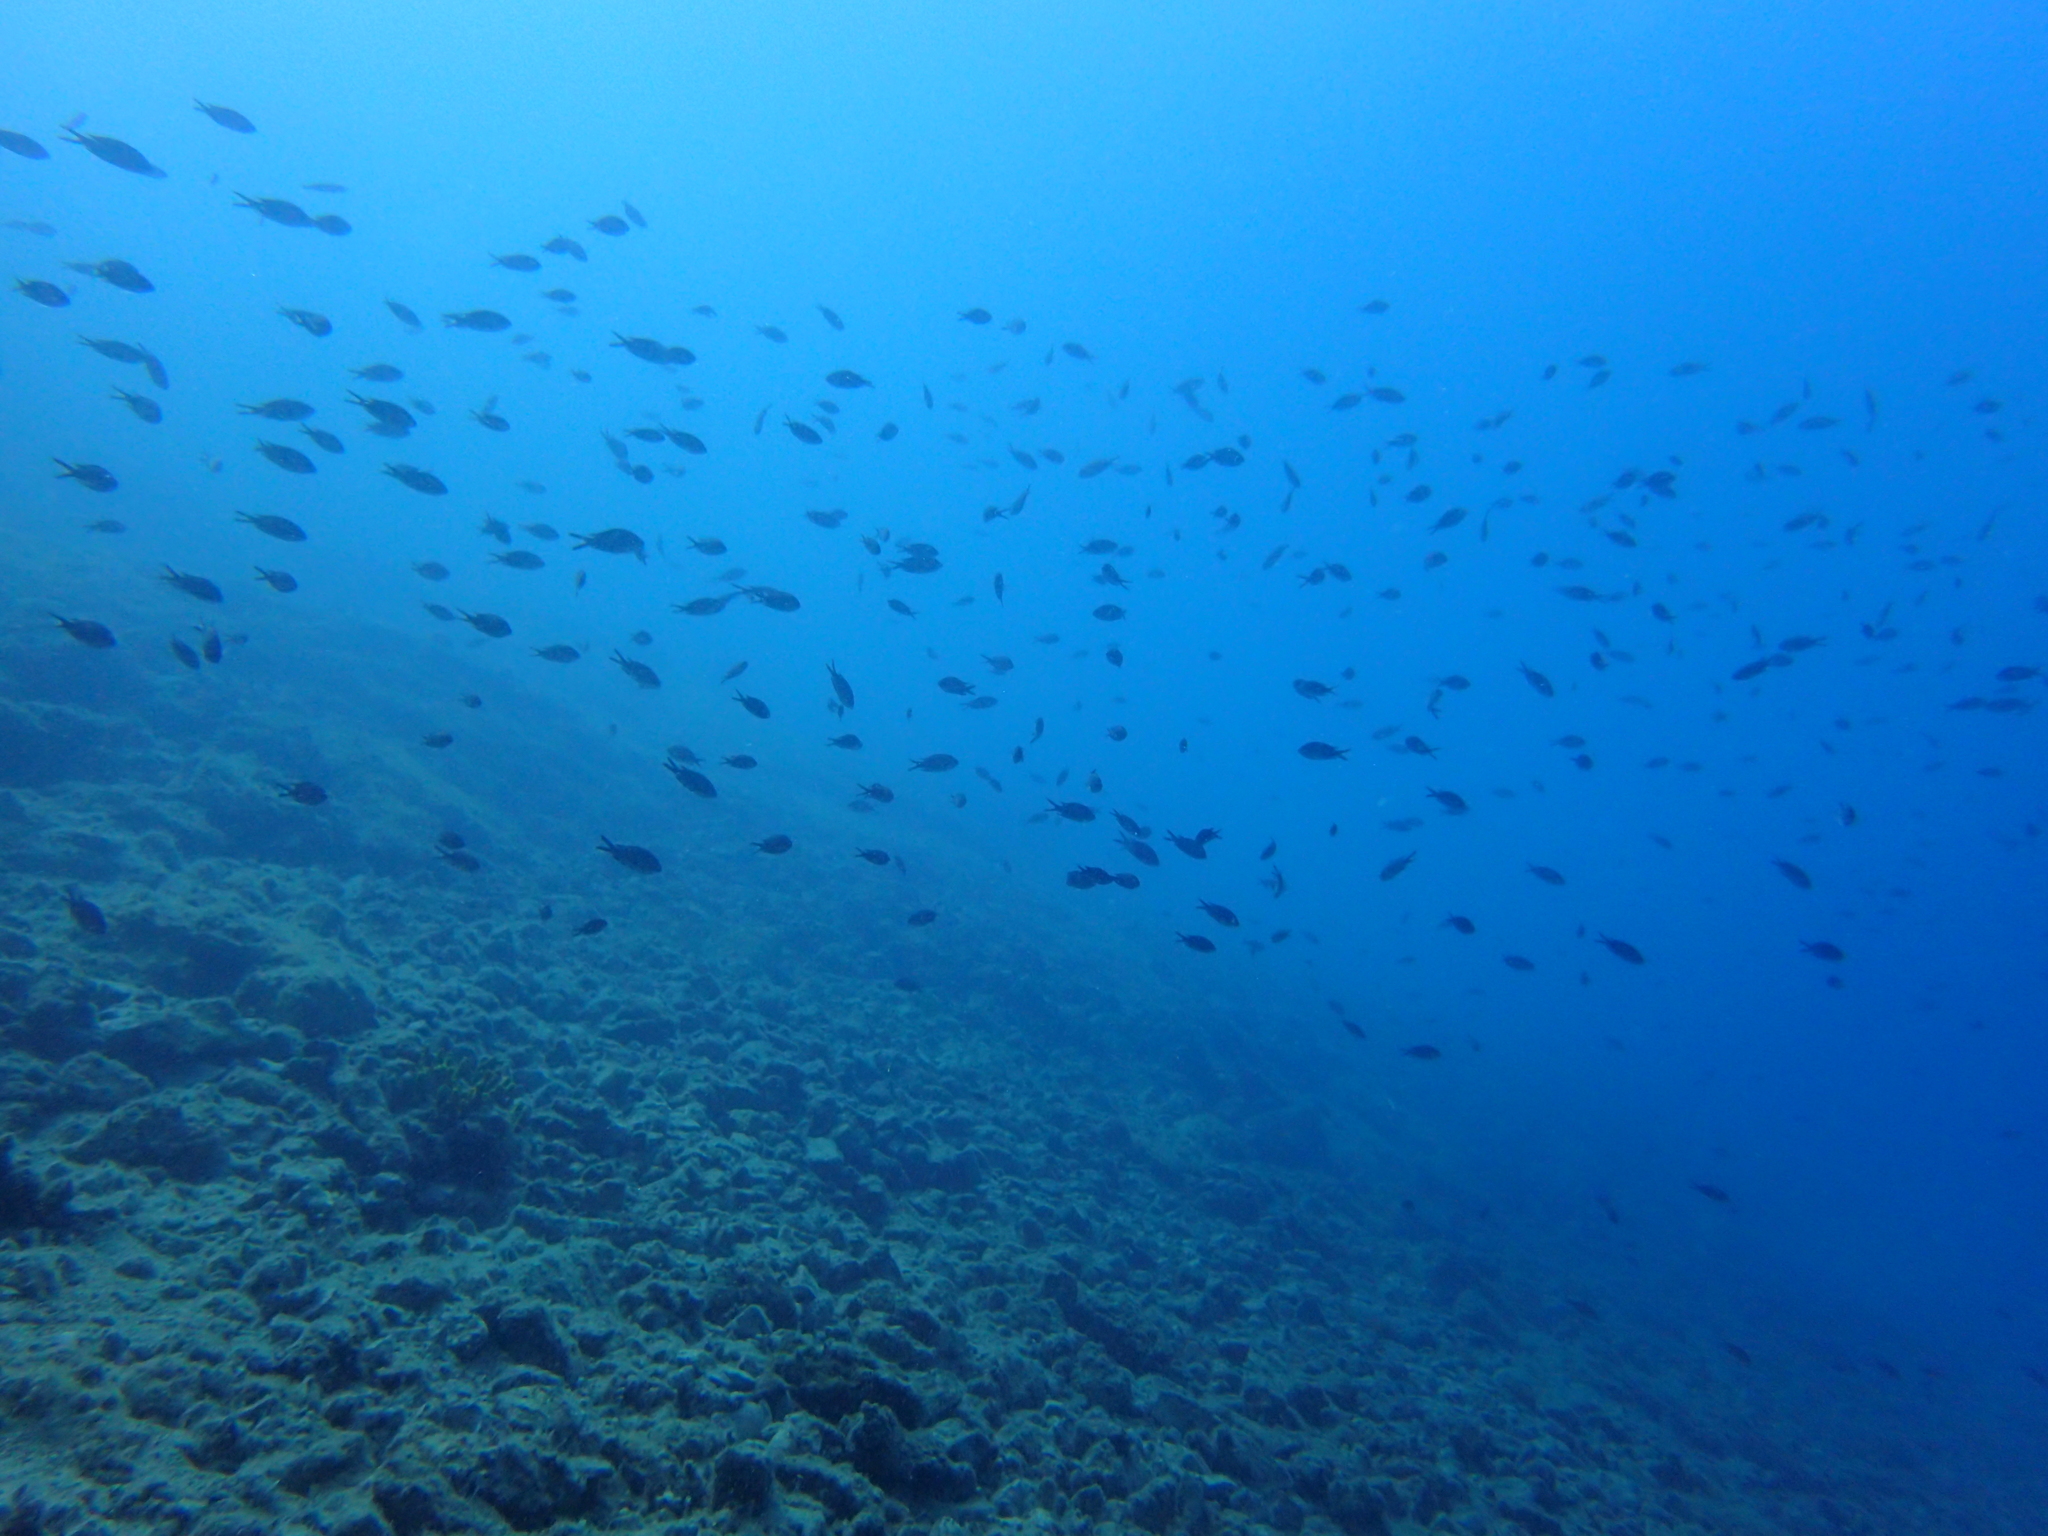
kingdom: Animalia
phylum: Chordata
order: Perciformes
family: Pomacentridae
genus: Chromis
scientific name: Chromis chromis
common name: Damselfish
